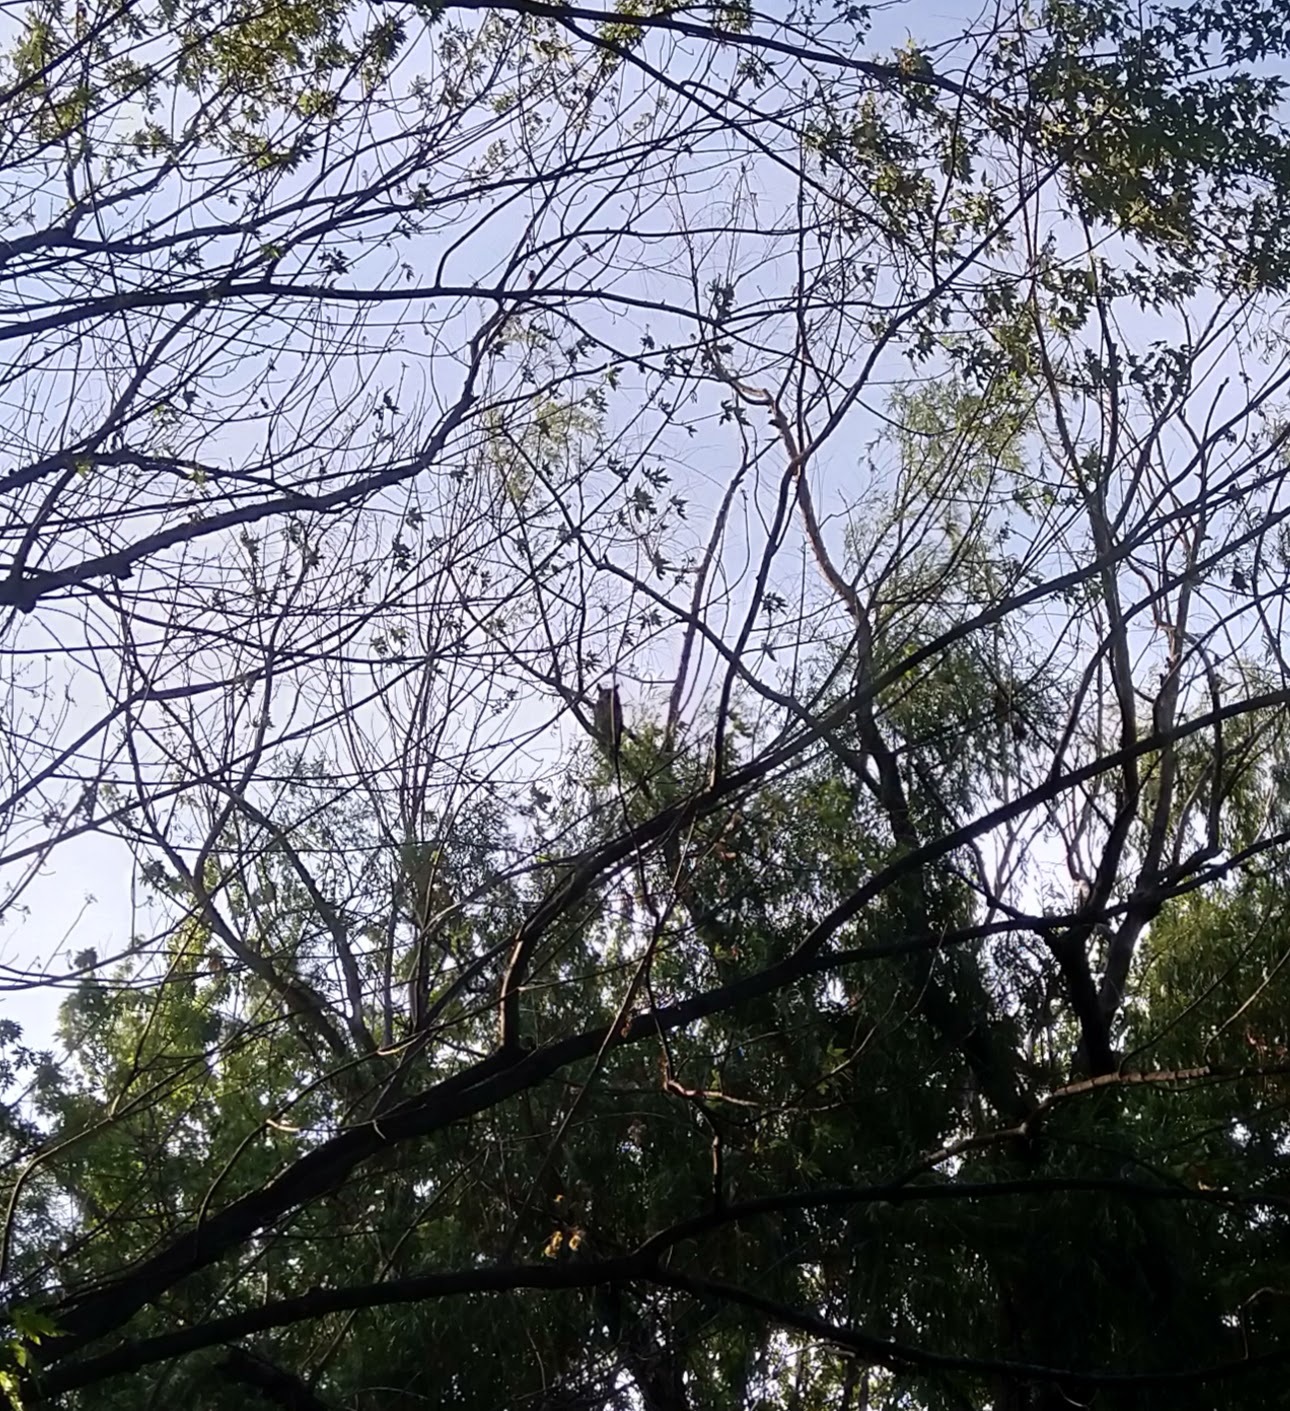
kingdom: Animalia
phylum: Chordata
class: Aves
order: Strigiformes
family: Strigidae
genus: Bubo
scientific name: Bubo virginianus
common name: Great horned owl
